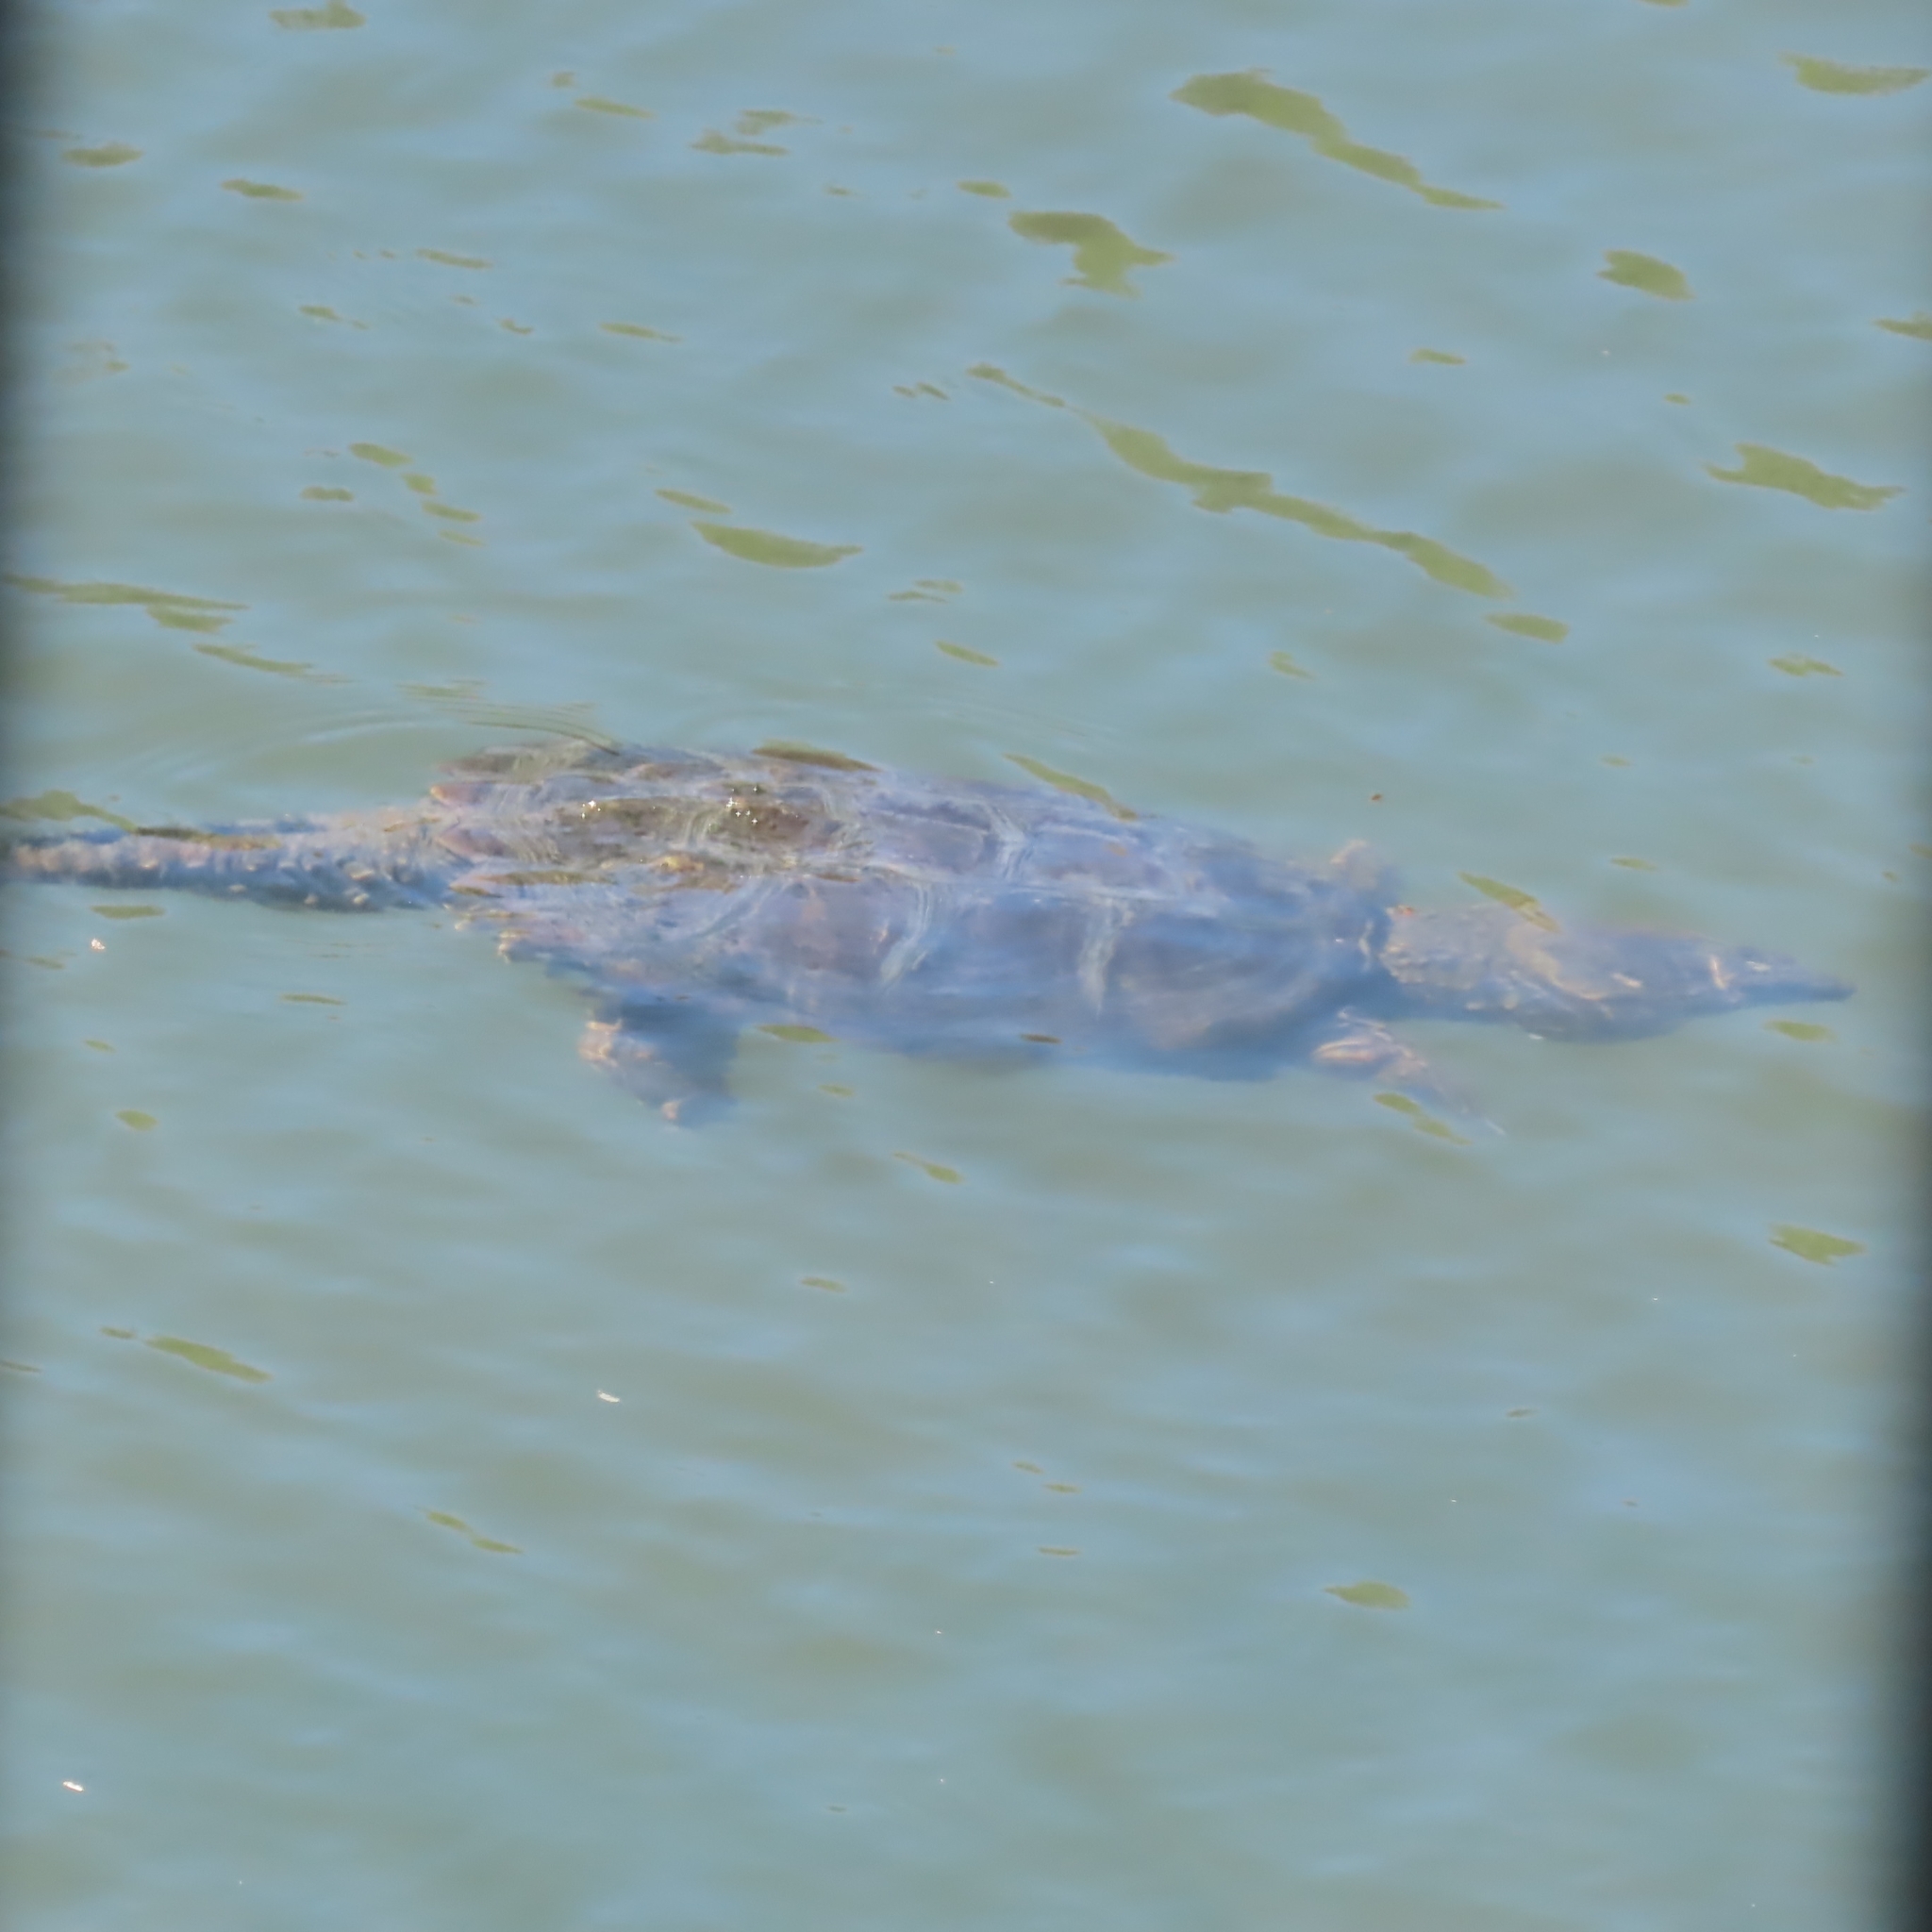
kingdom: Animalia
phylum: Chordata
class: Testudines
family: Chelydridae
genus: Chelydra
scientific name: Chelydra serpentina
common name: Common snapping turtle
